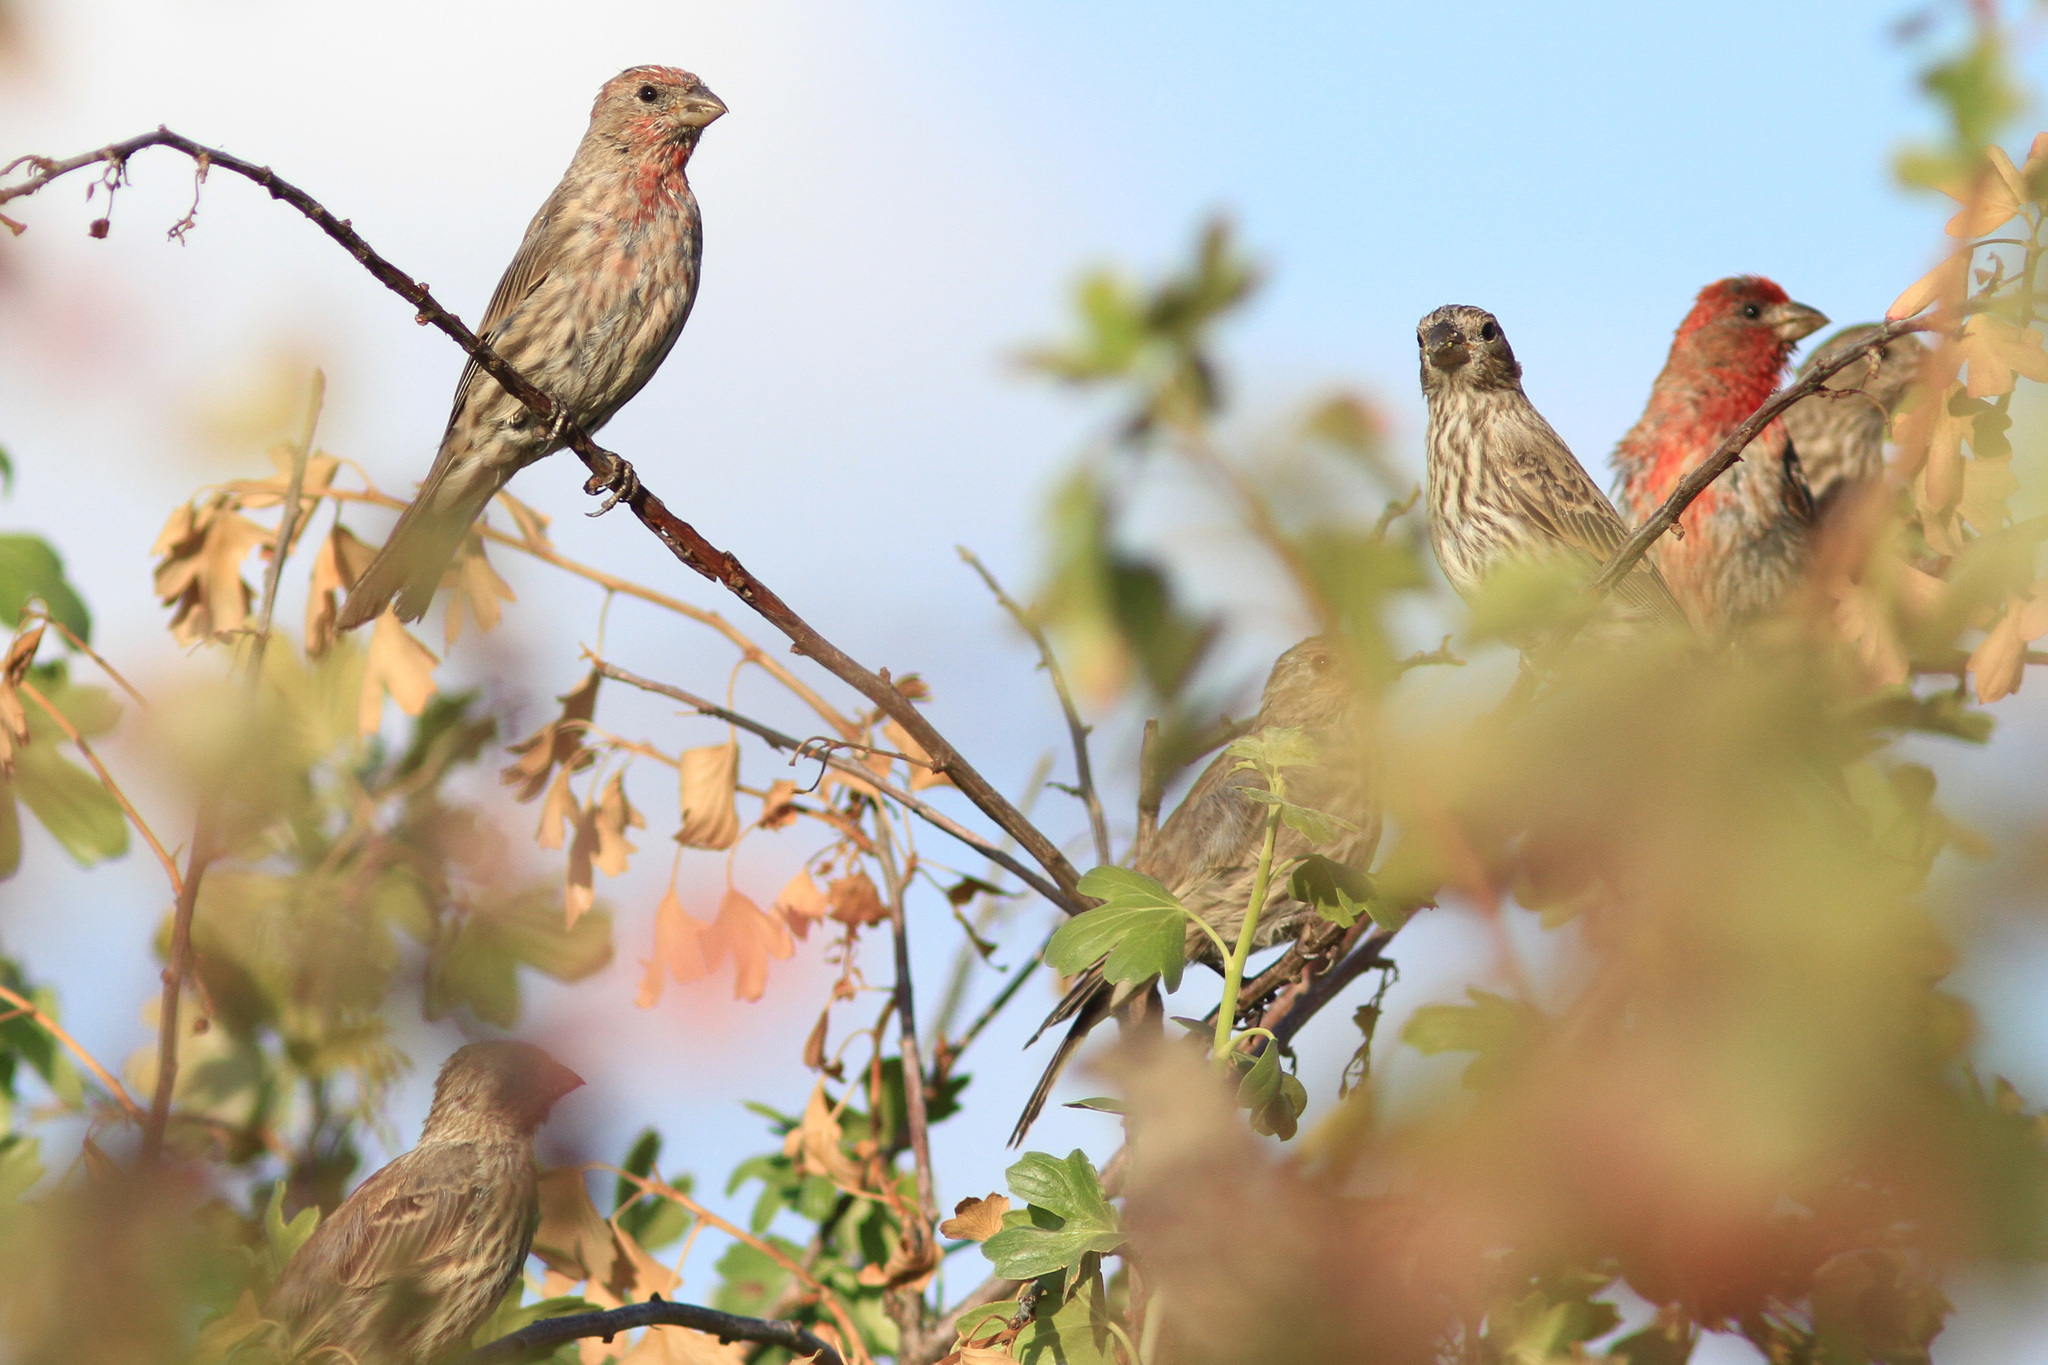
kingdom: Animalia
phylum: Chordata
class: Aves
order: Passeriformes
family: Fringillidae
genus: Haemorhous
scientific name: Haemorhous mexicanus
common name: House finch
